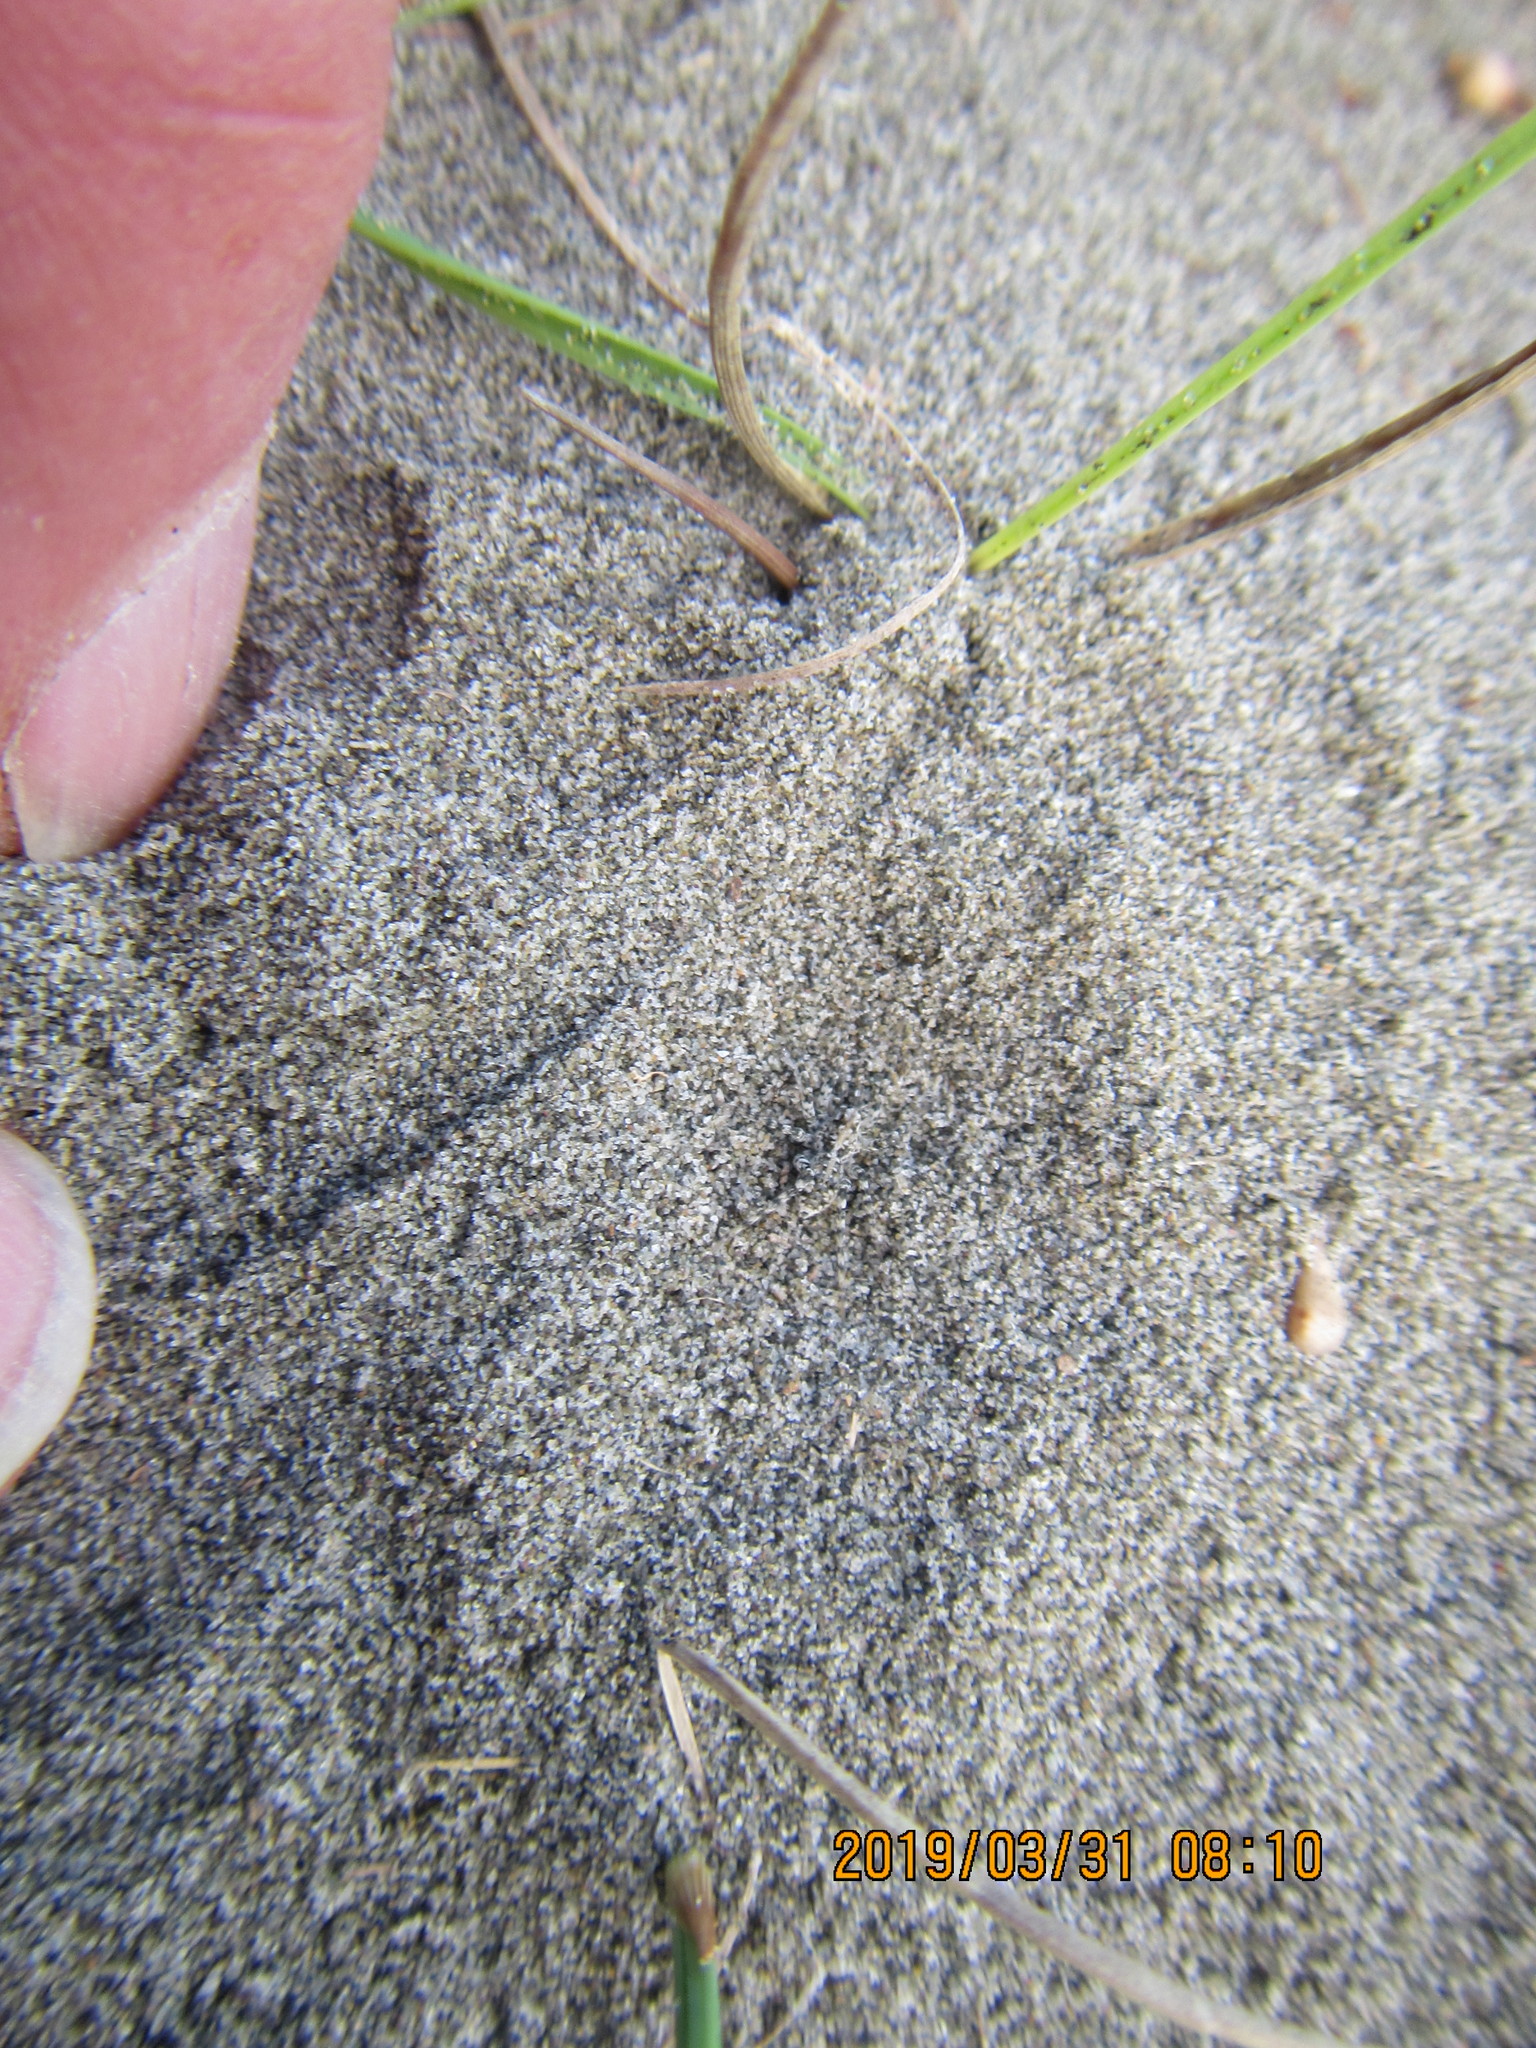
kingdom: Animalia
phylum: Arthropoda
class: Arachnida
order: Araneae
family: Lycosidae
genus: Anoteropsis
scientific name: Anoteropsis litoralis
